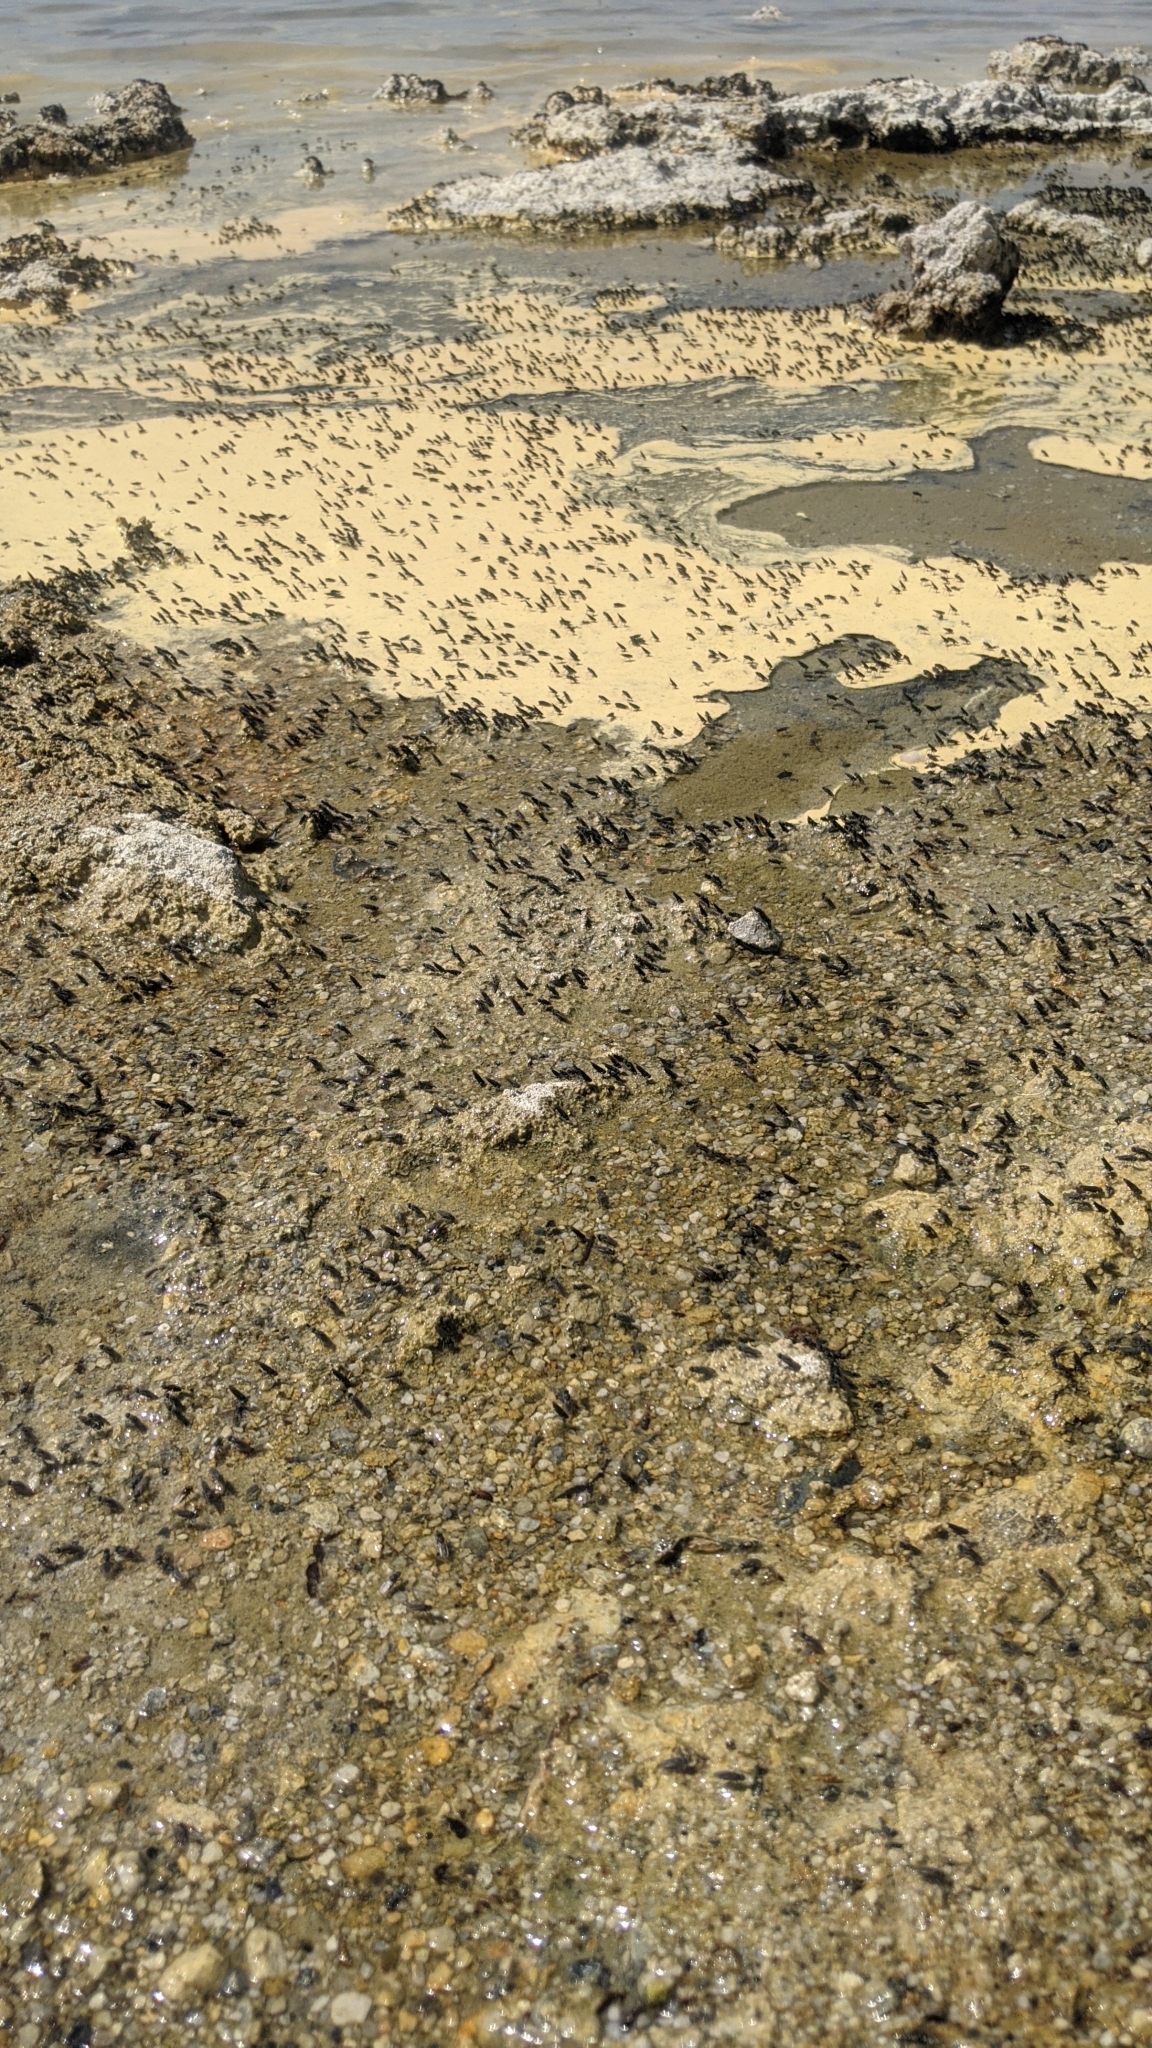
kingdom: Animalia
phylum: Arthropoda
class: Insecta
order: Diptera
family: Ephydridae
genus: Cirrula
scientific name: Cirrula hians
